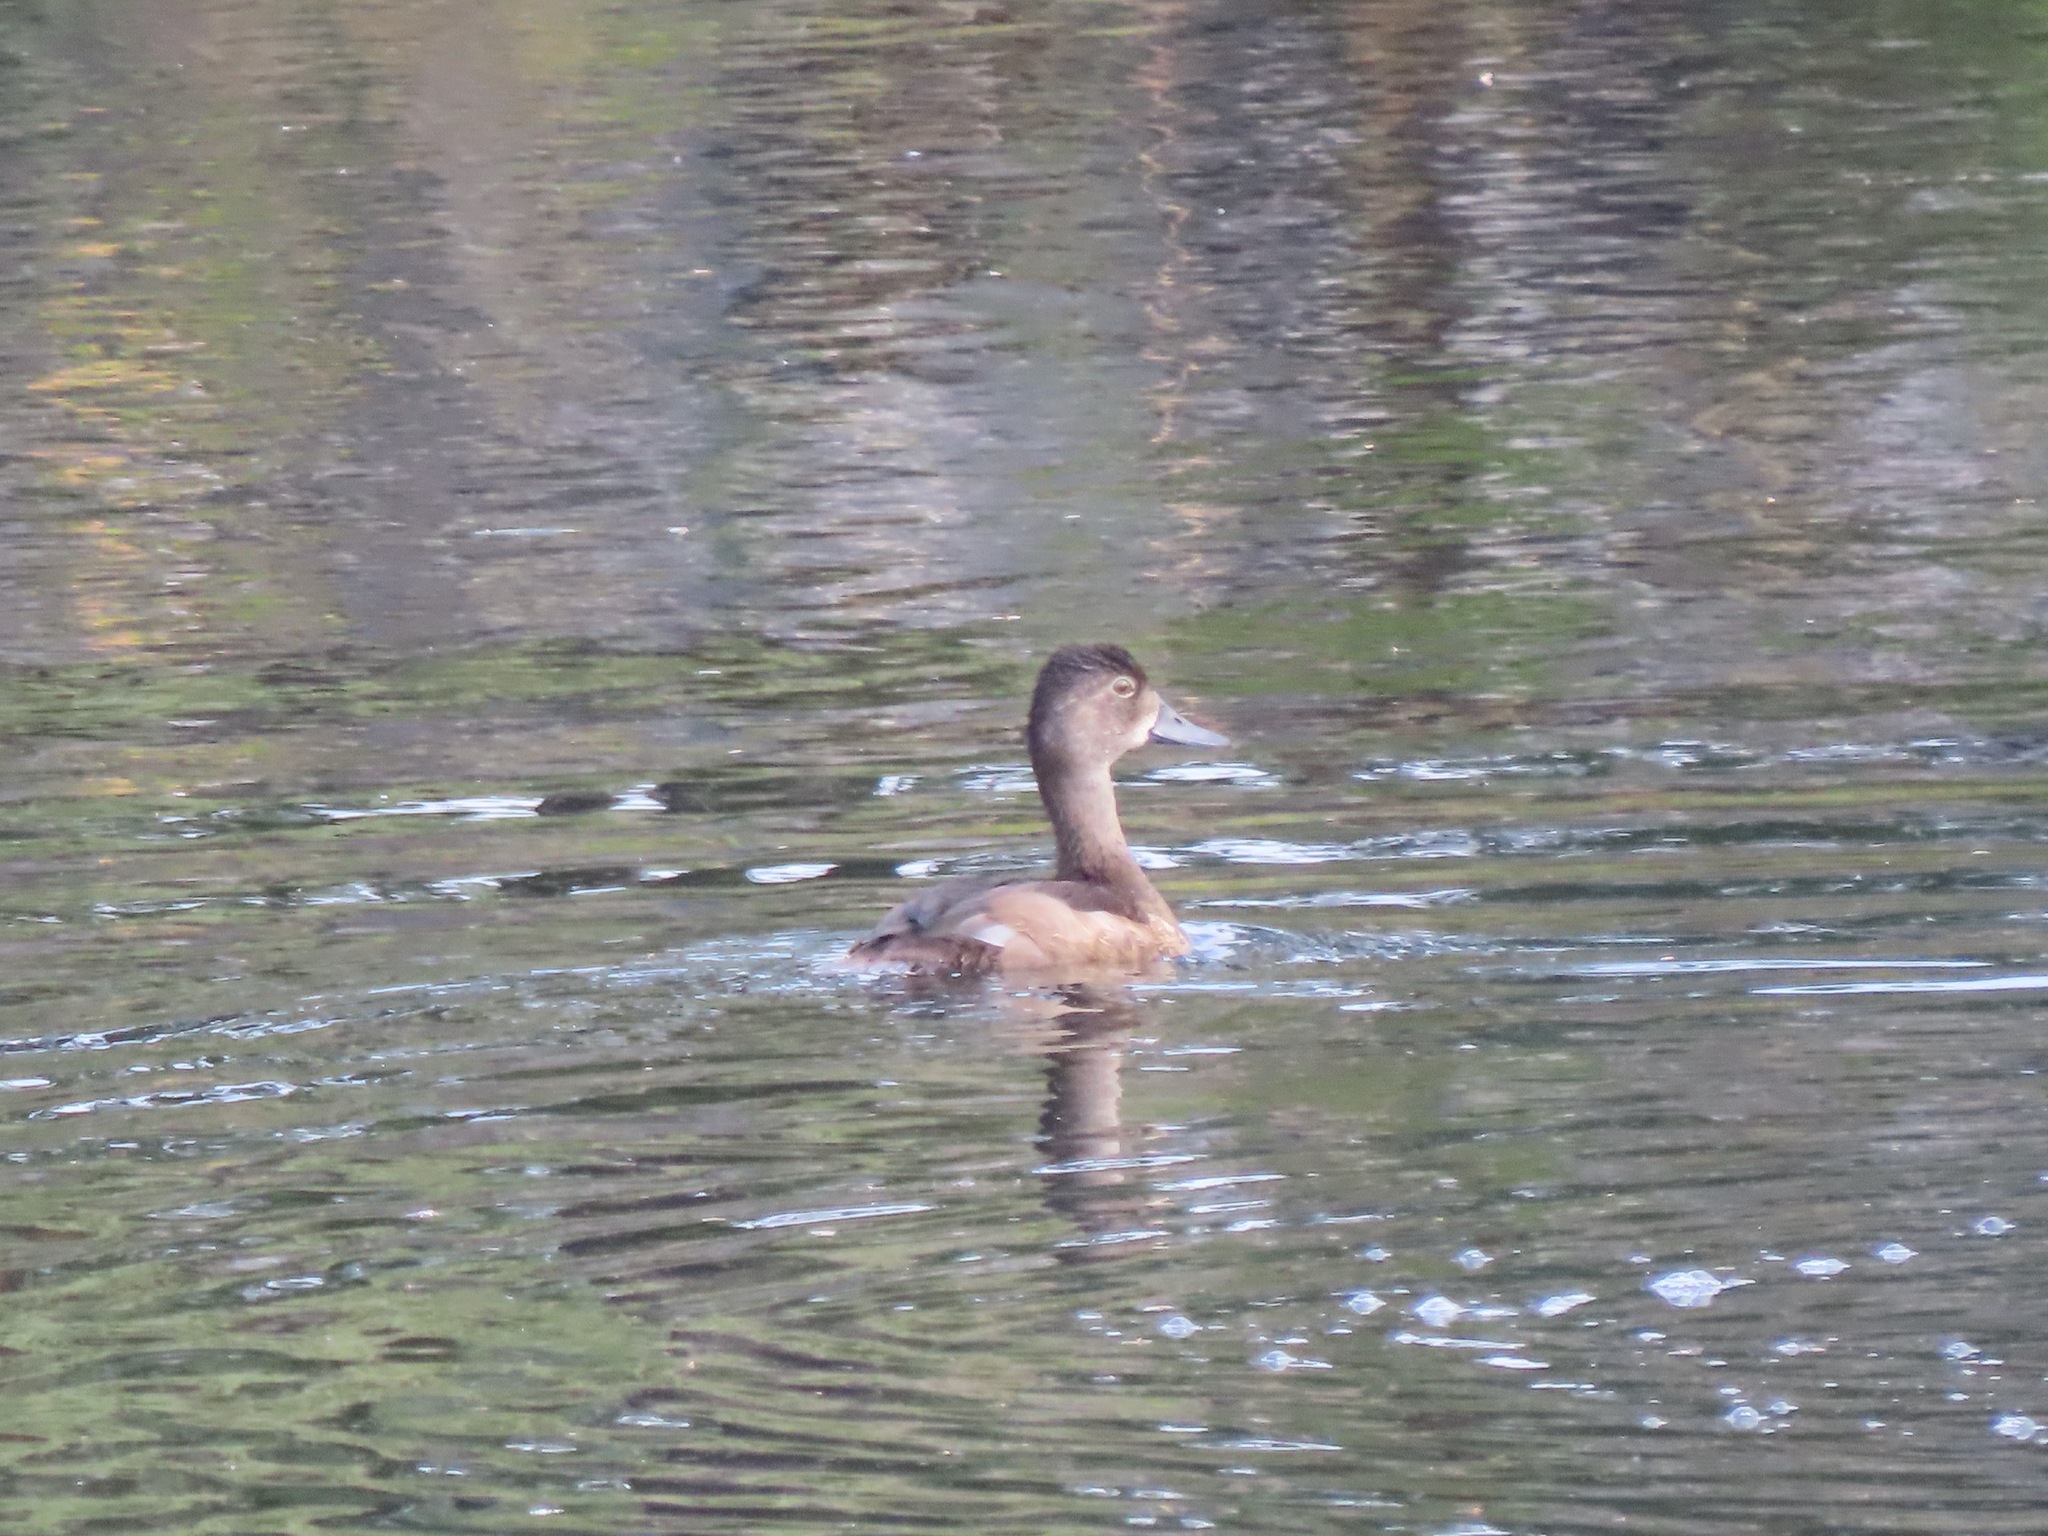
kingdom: Animalia
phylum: Chordata
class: Aves
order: Anseriformes
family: Anatidae
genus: Aythya
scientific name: Aythya collaris
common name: Ring-necked duck
